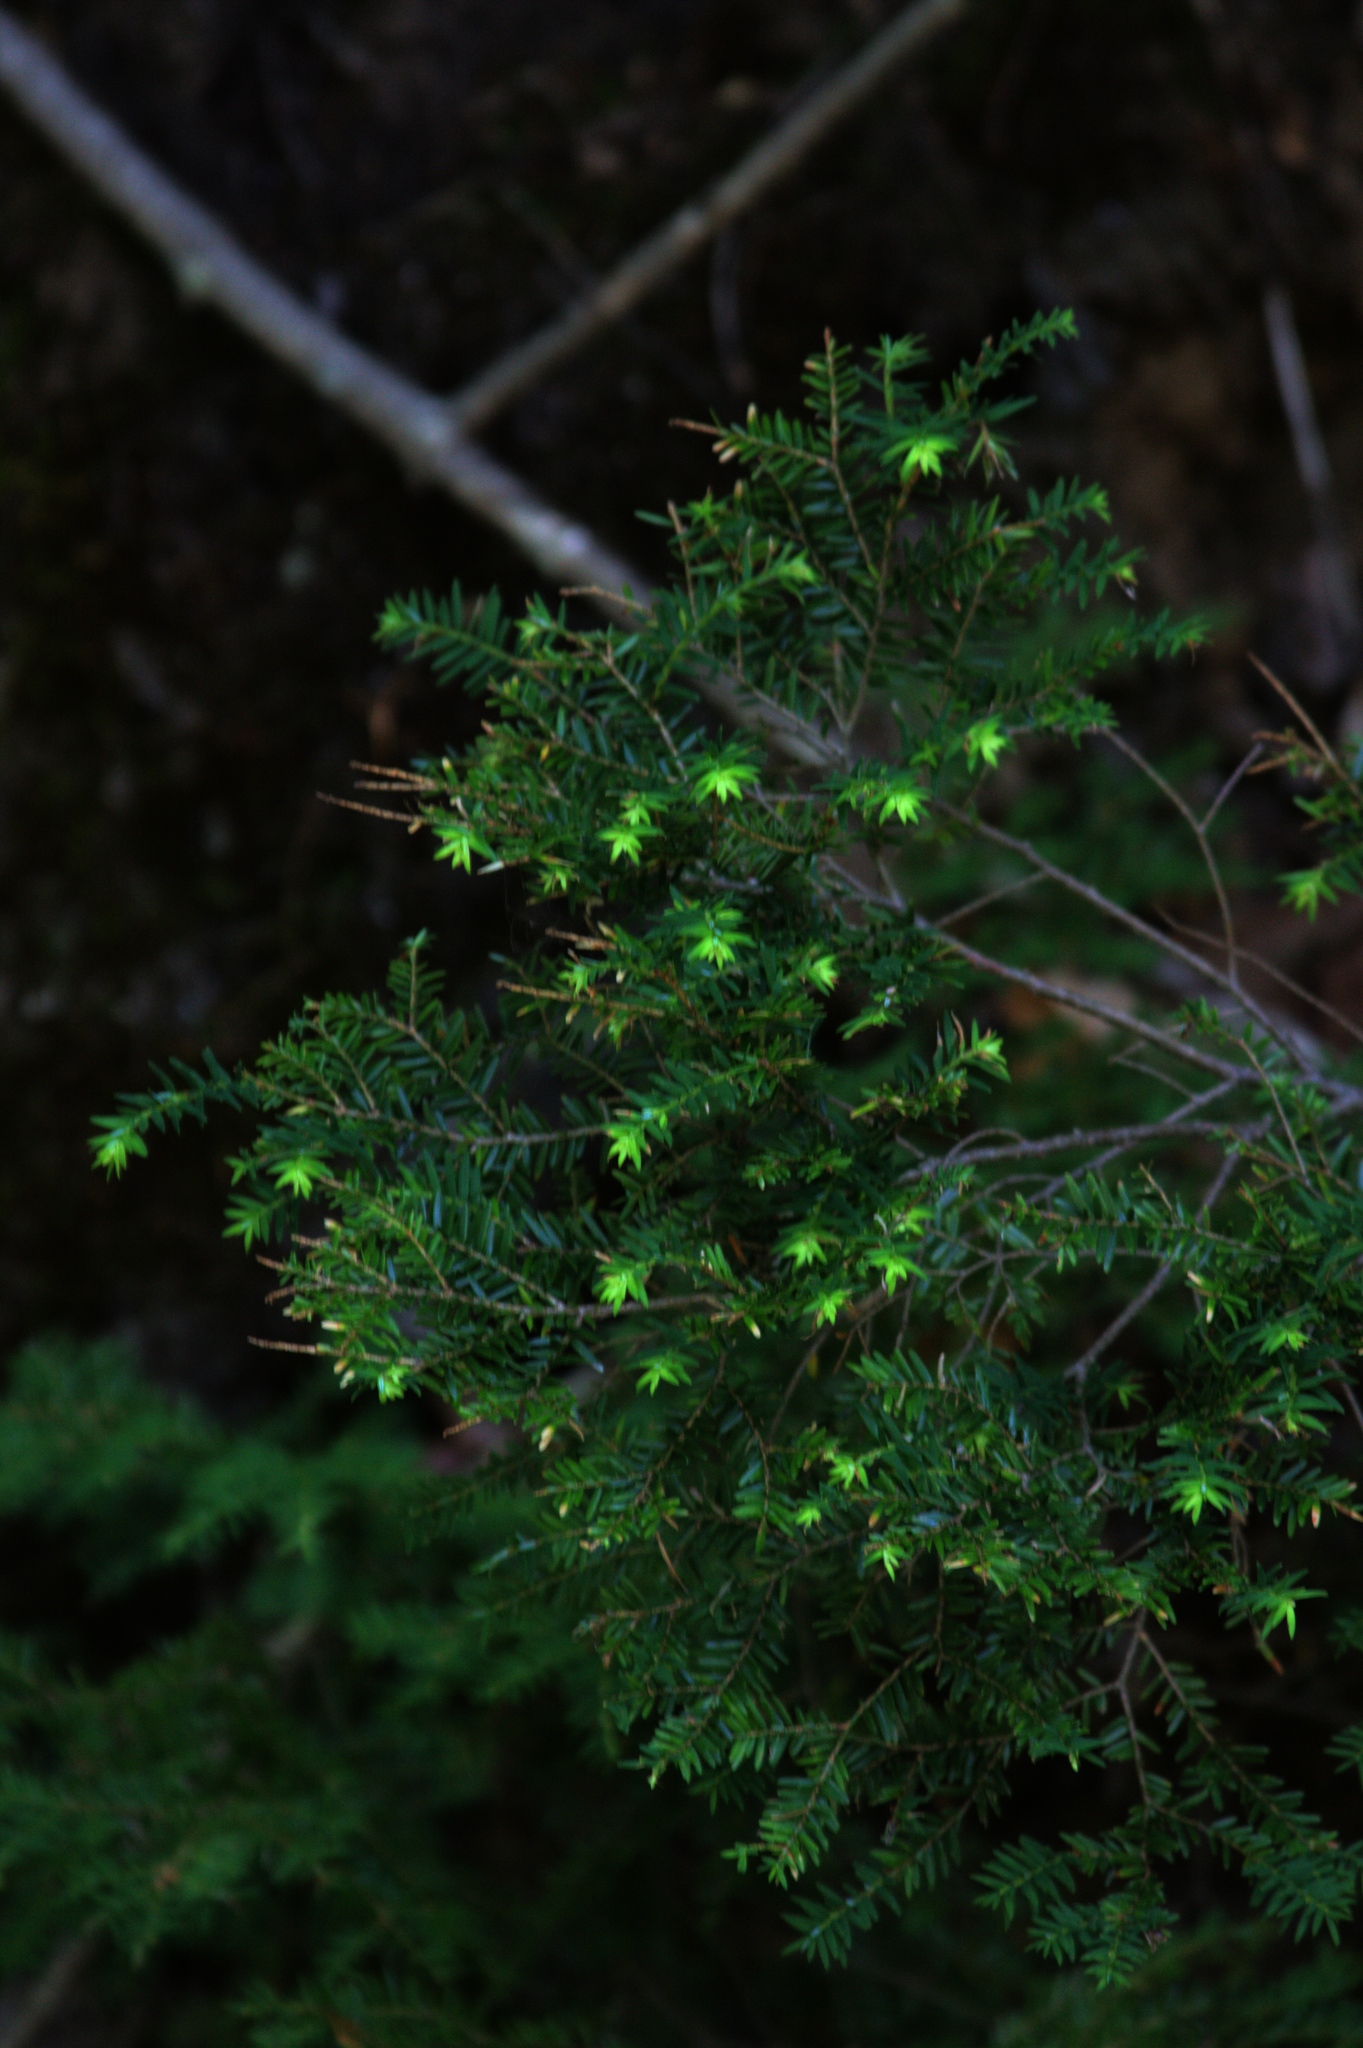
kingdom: Plantae
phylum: Tracheophyta
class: Pinopsida
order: Pinales
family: Pinaceae
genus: Tsuga
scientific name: Tsuga canadensis
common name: Eastern hemlock
